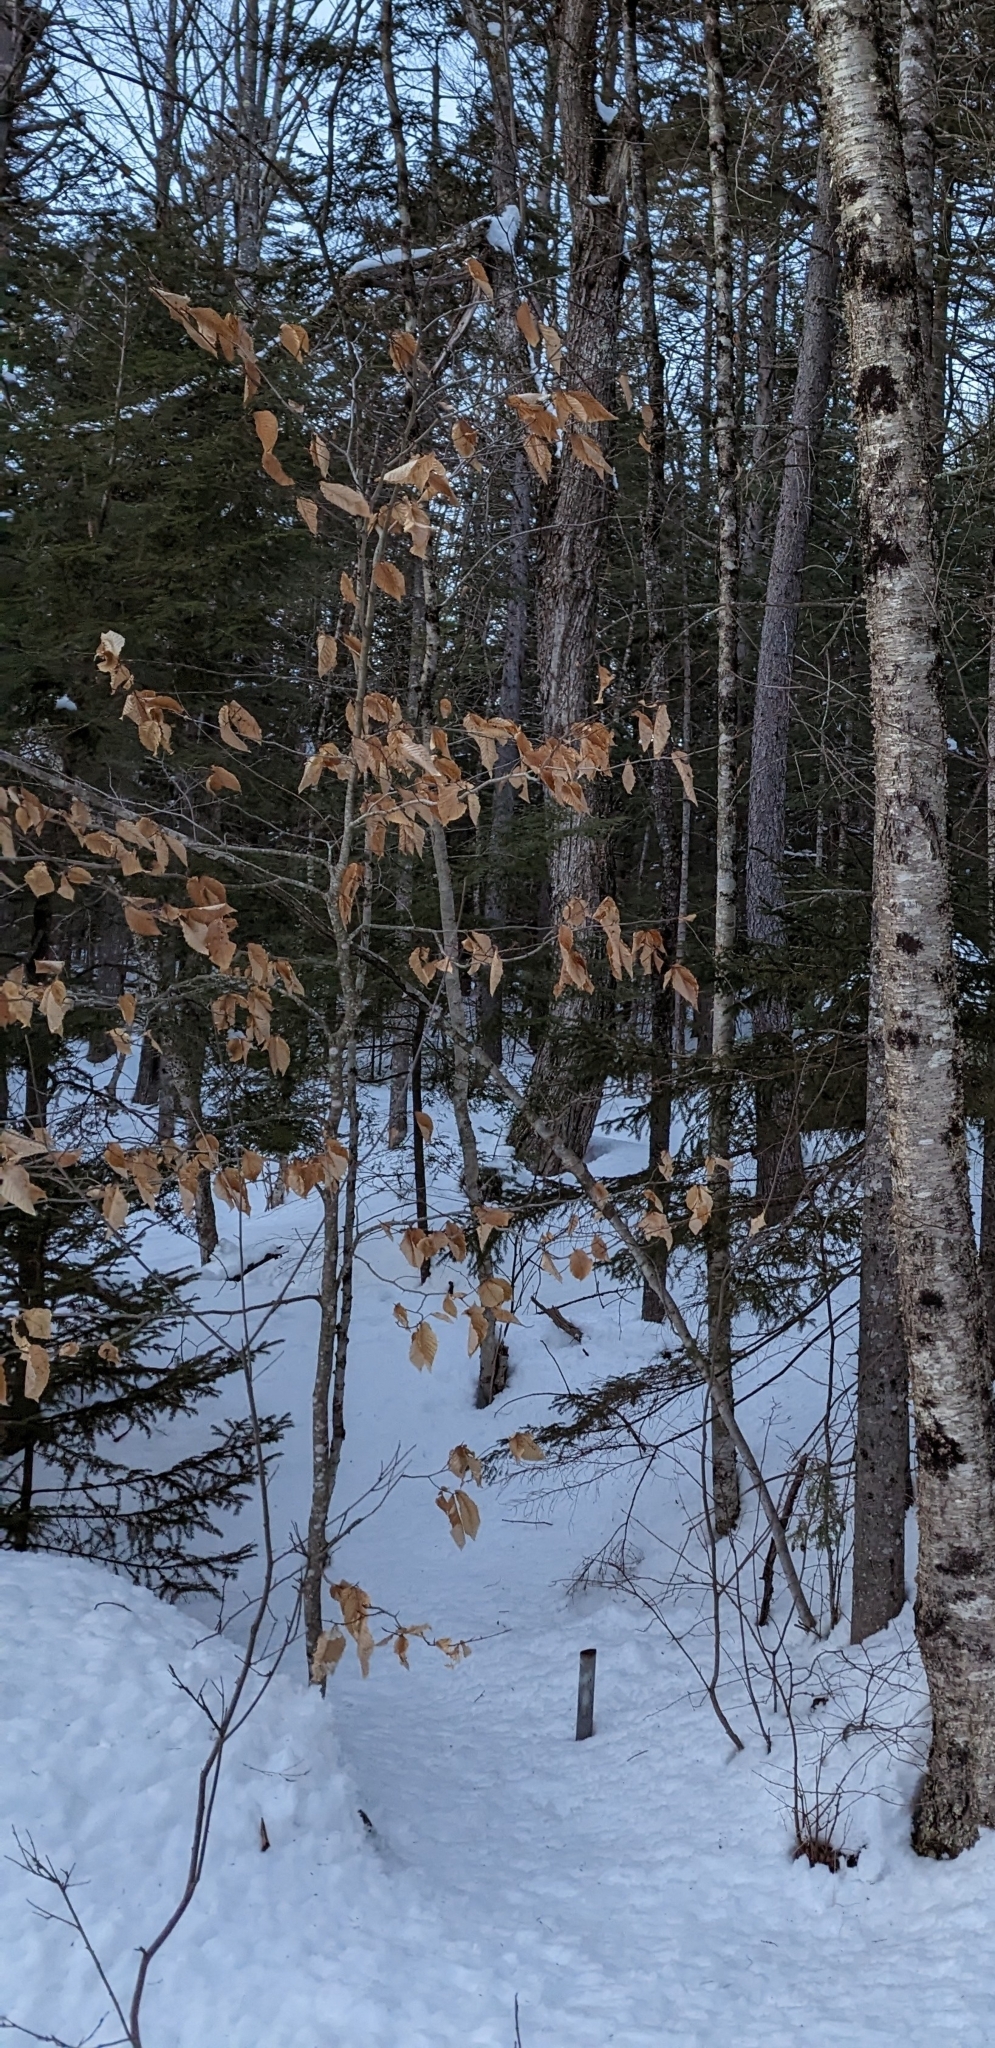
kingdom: Plantae
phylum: Tracheophyta
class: Magnoliopsida
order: Fagales
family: Fagaceae
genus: Fagus
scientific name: Fagus grandifolia
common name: American beech
